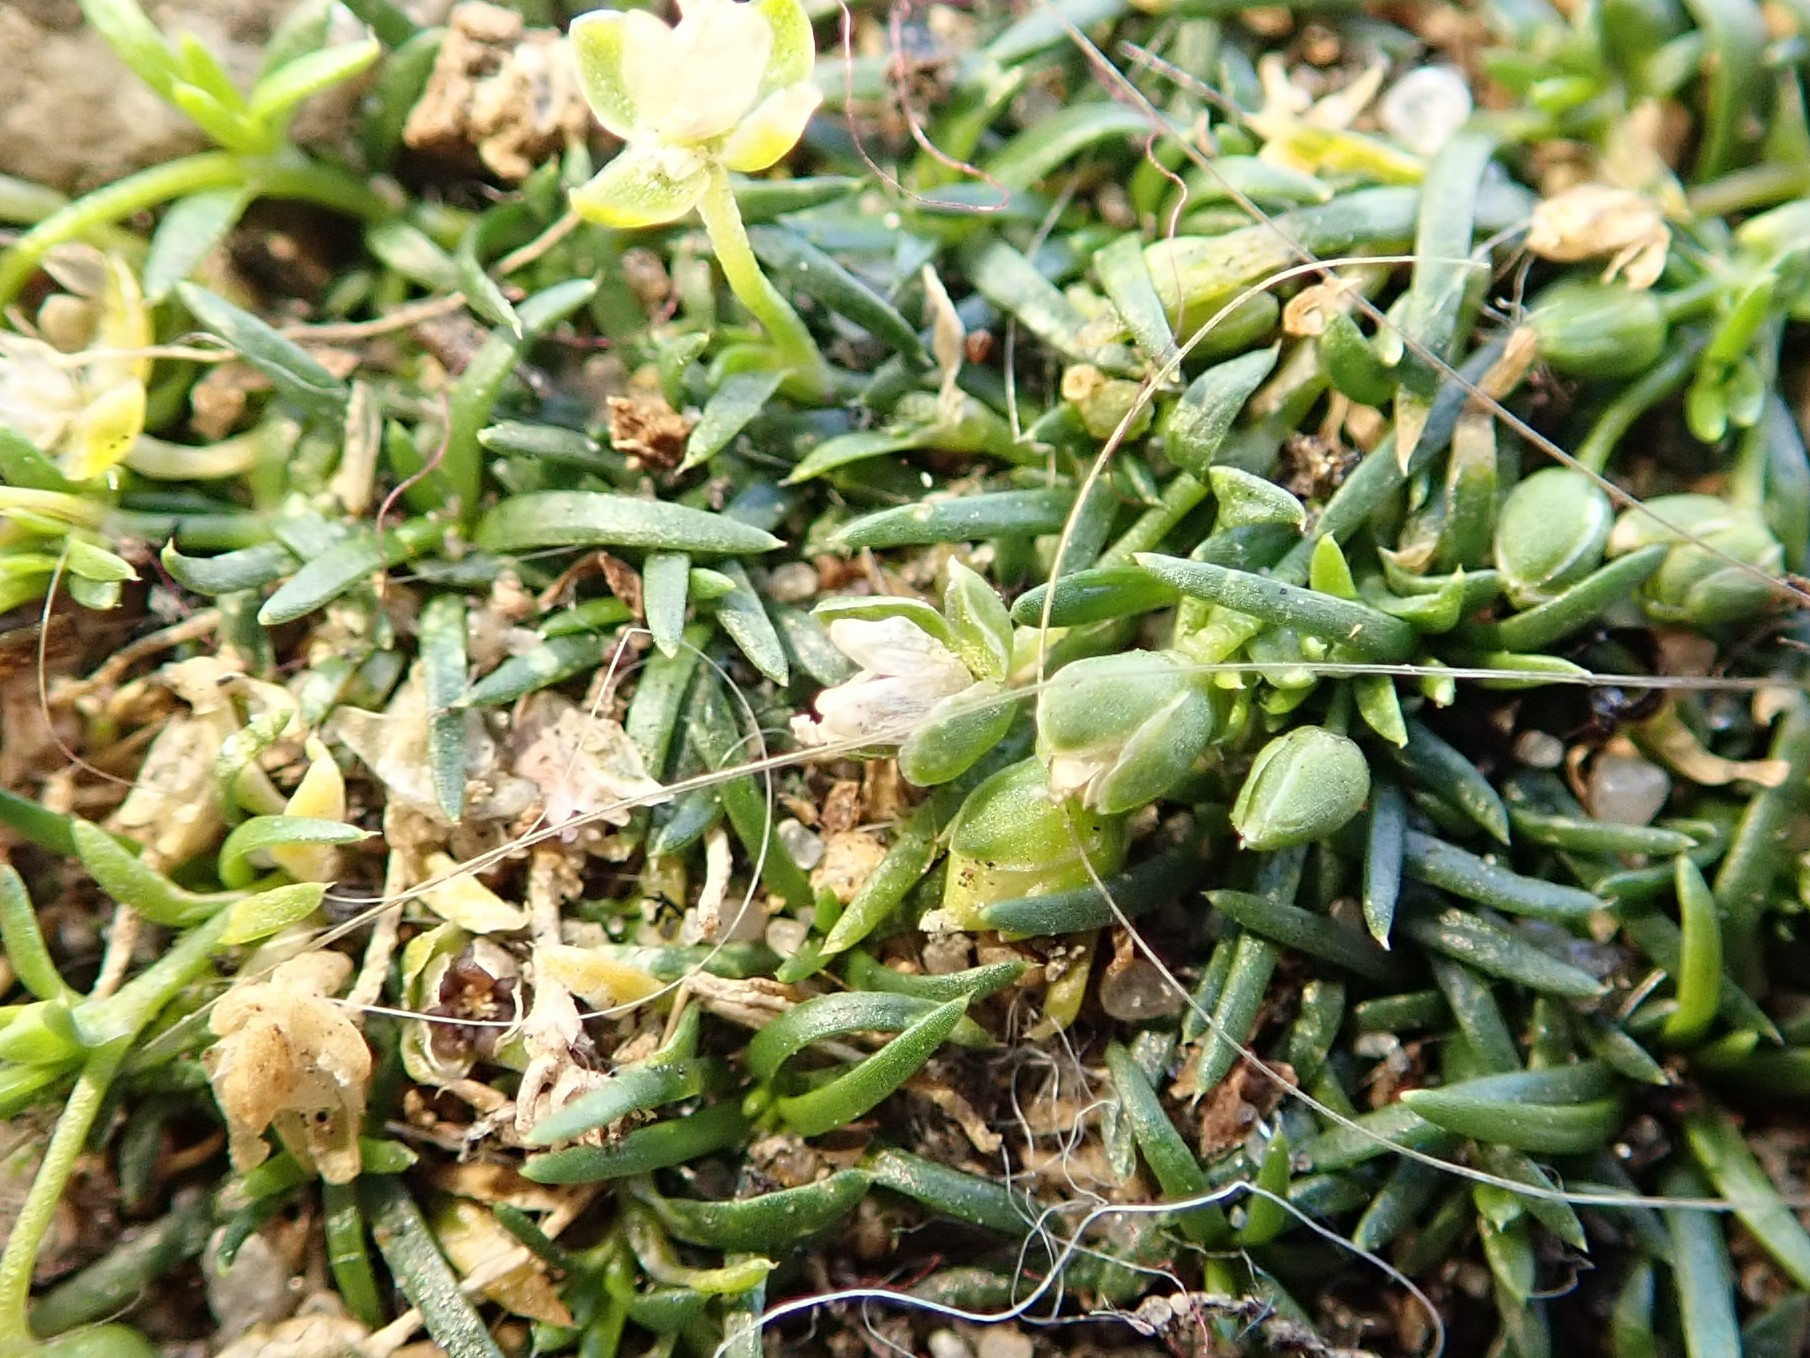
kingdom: Plantae
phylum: Tracheophyta
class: Magnoliopsida
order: Caryophyllales
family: Caryophyllaceae
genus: Sagina
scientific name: Sagina procumbens
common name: Procumbent pearlwort
